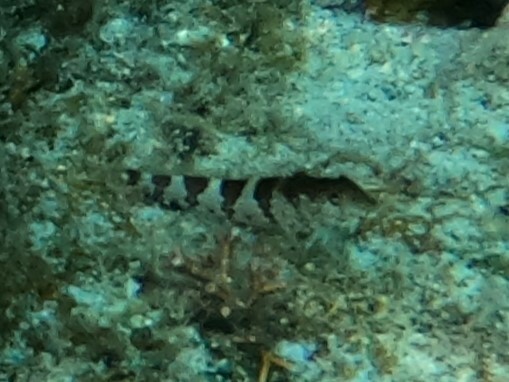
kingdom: Animalia
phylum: Chordata
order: Perciformes
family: Labrisomidae
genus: Malacoctenus
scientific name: Malacoctenus triangulatus
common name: Saddled blenny
